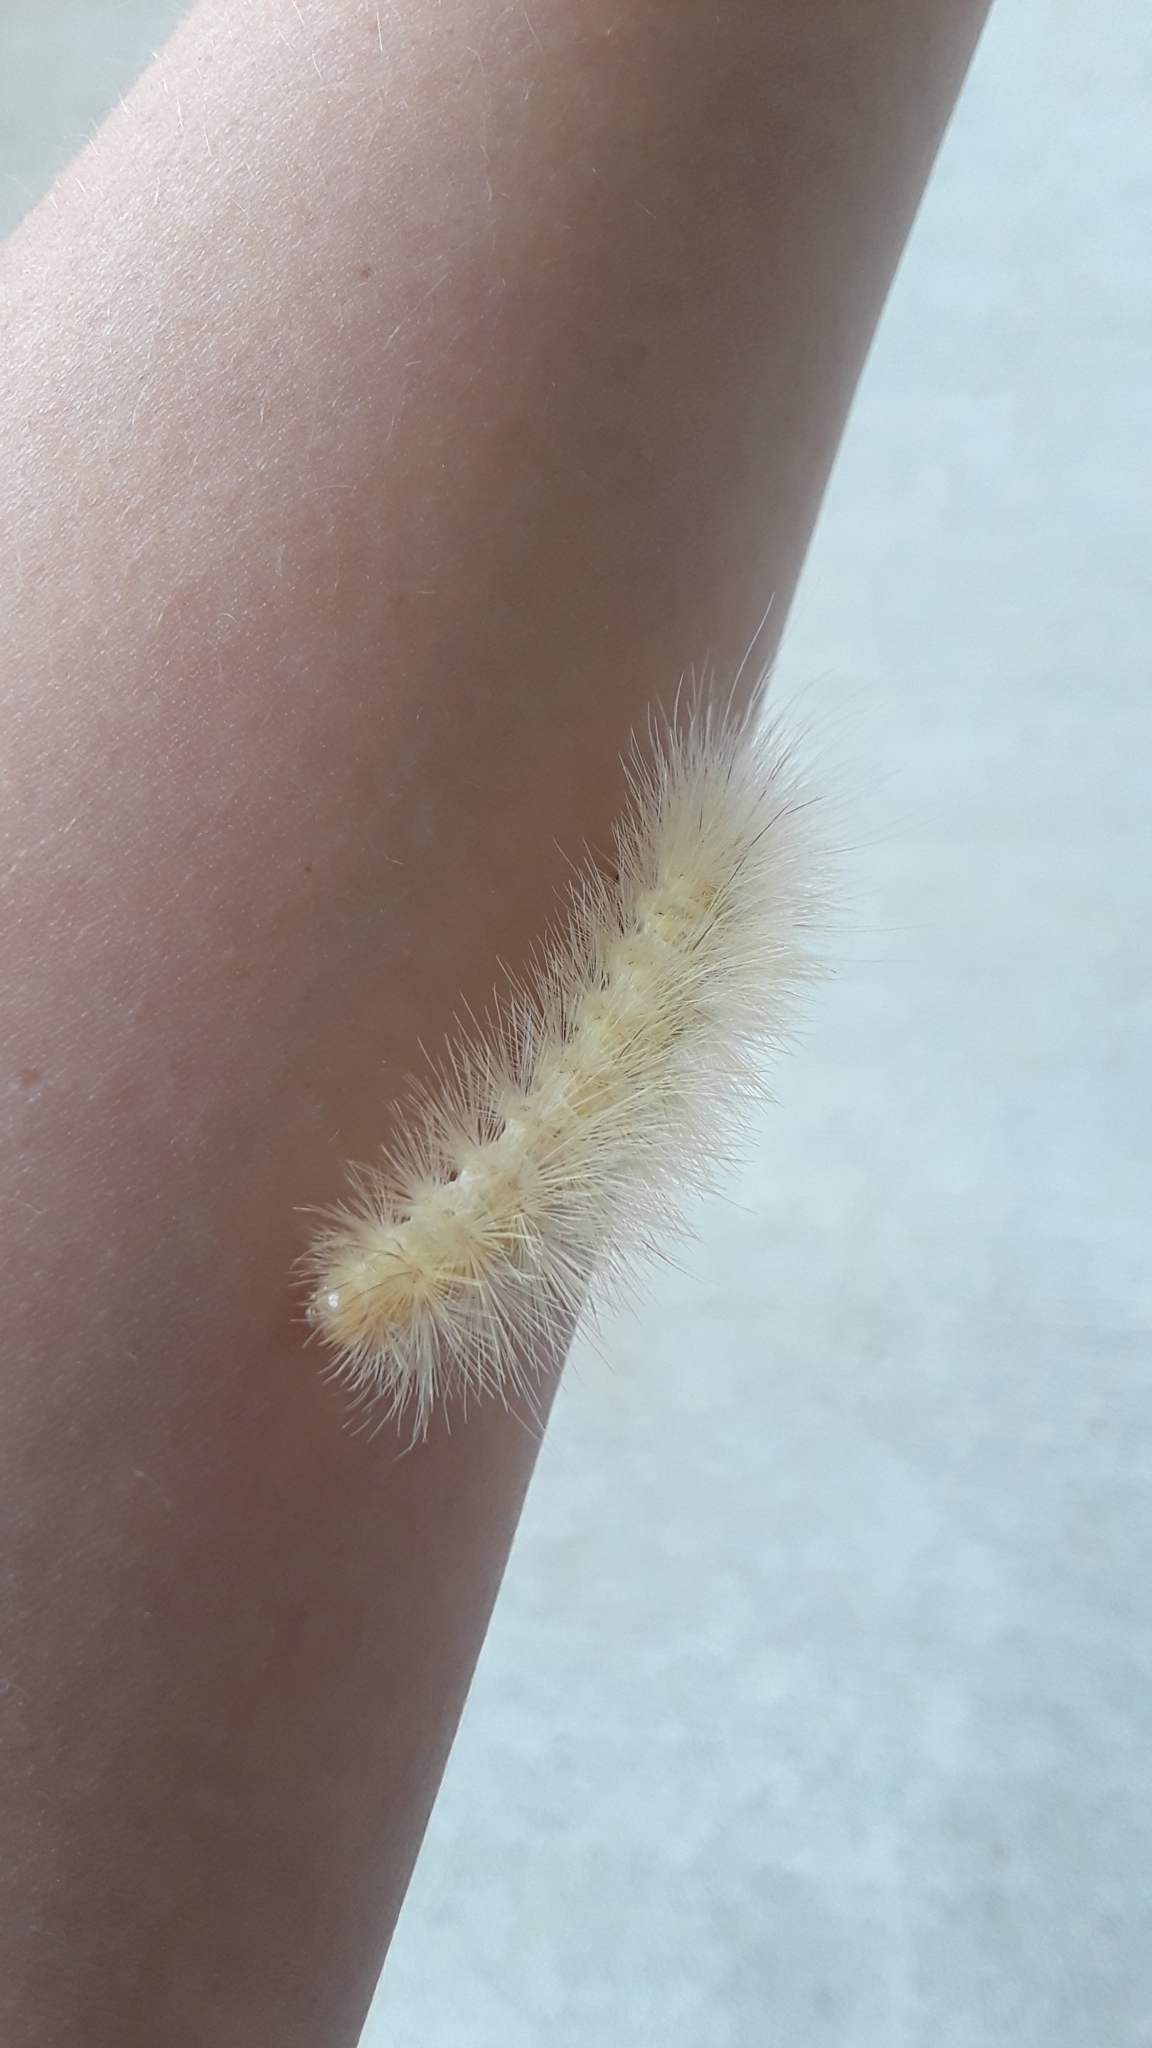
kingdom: Animalia
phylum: Arthropoda
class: Insecta
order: Lepidoptera
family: Erebidae
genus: Spilosoma
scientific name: Spilosoma virginica
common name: Virginia tiger moth
